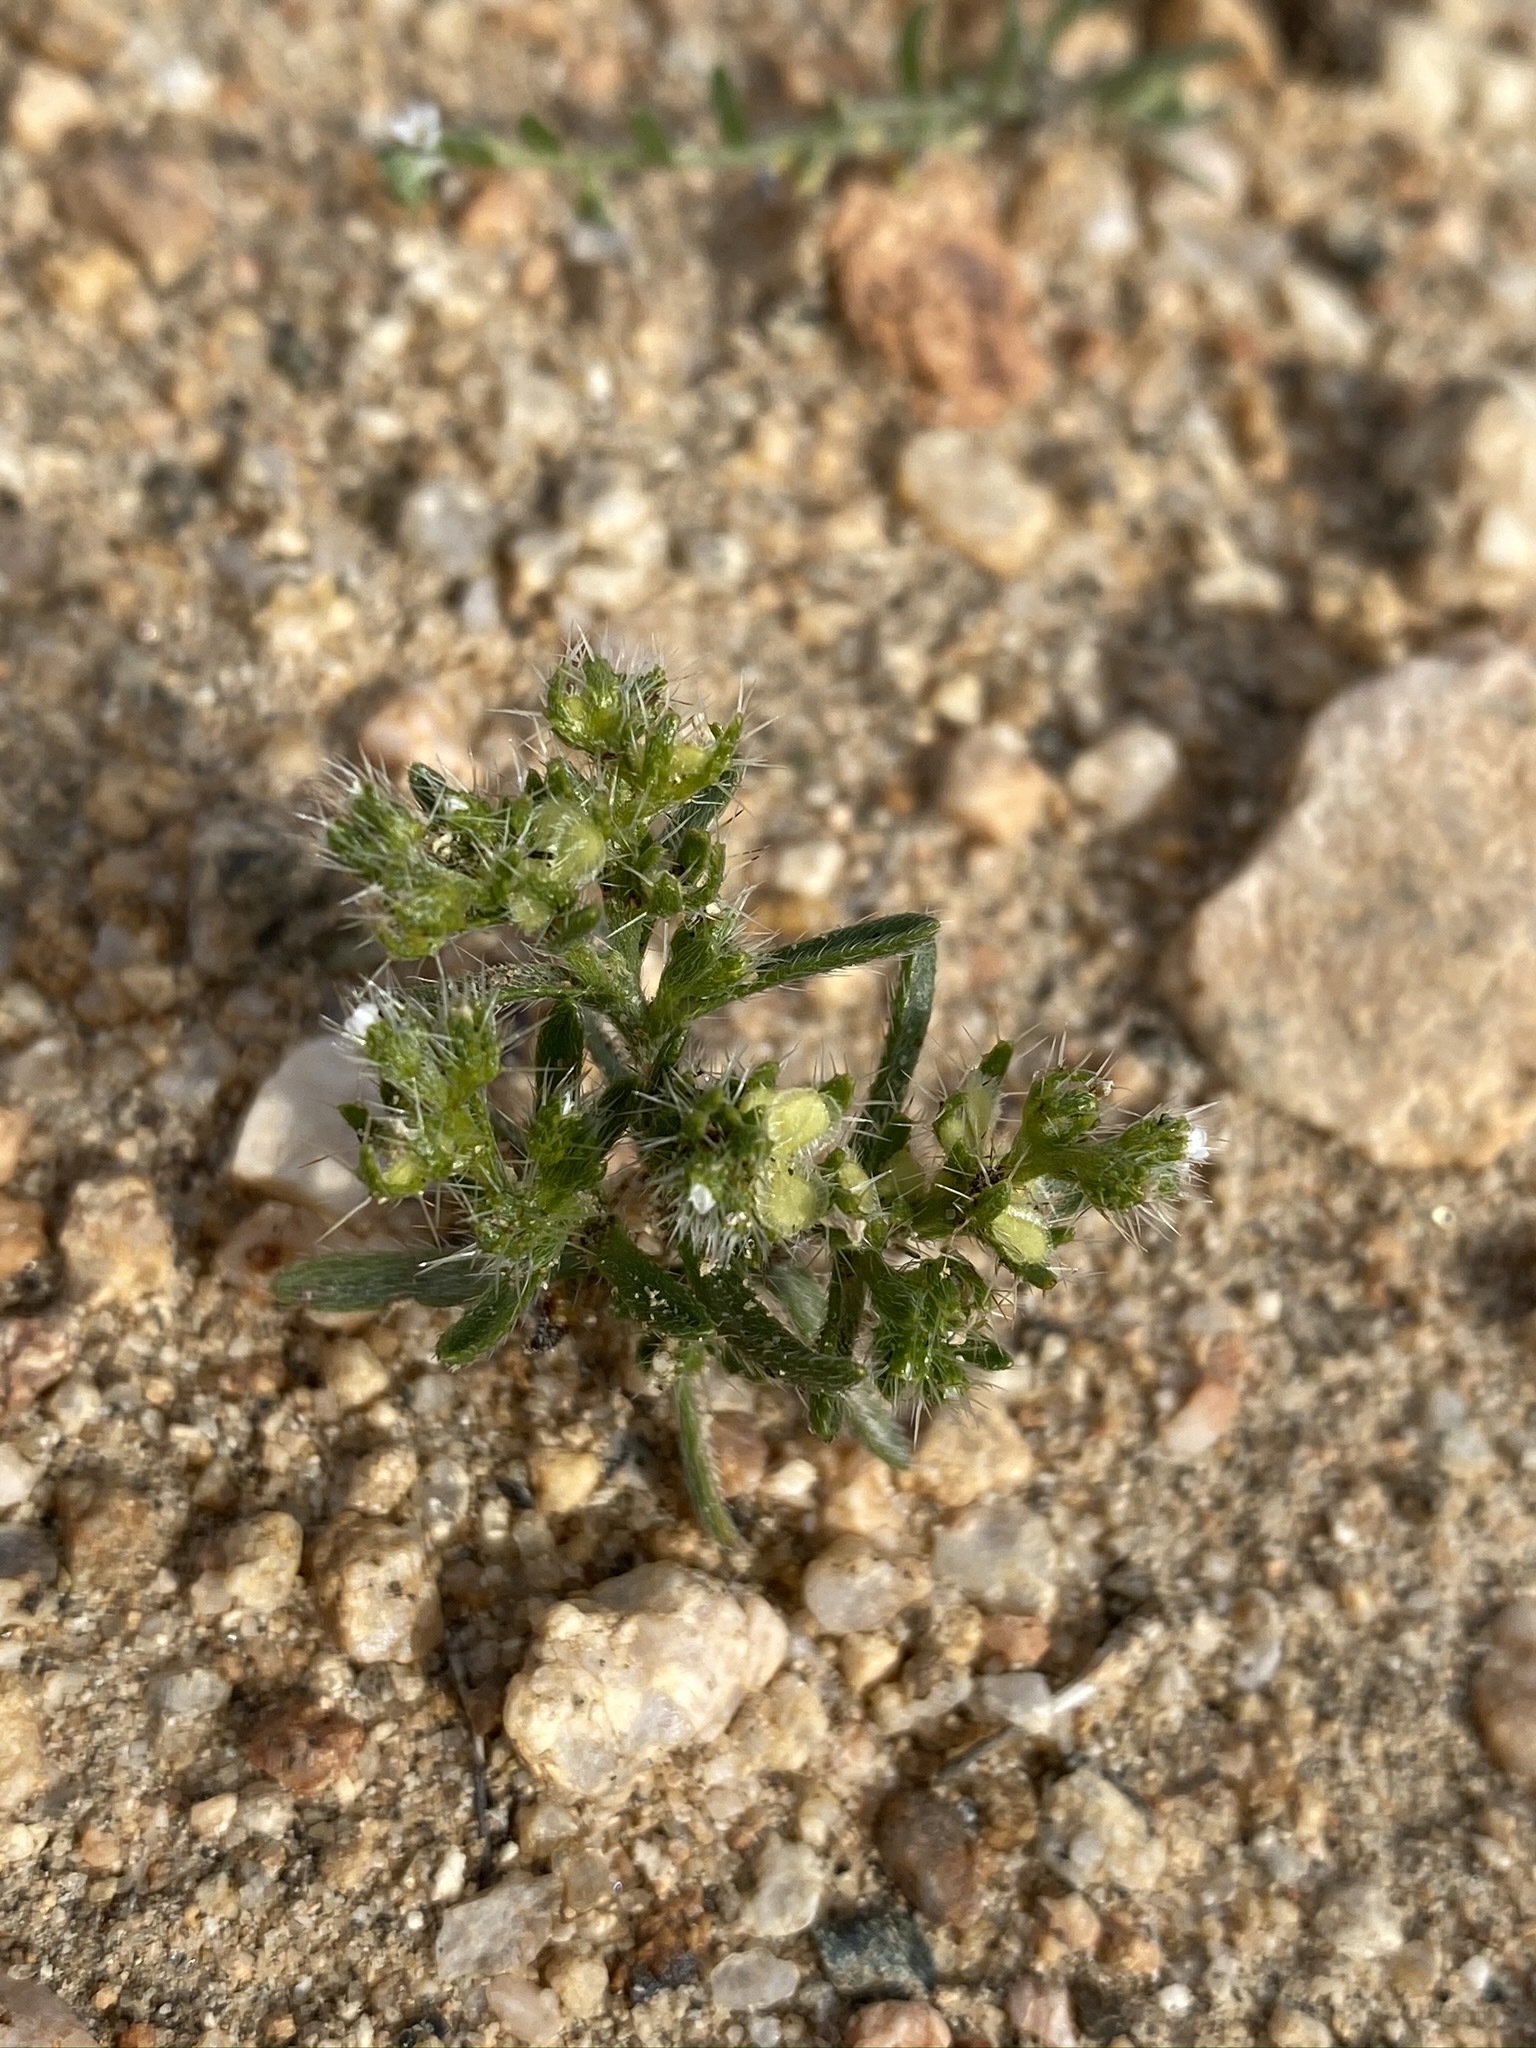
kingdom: Plantae
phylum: Tracheophyta
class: Magnoliopsida
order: Boraginales
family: Boraginaceae
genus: Pectocarya
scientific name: Pectocarya setosa
